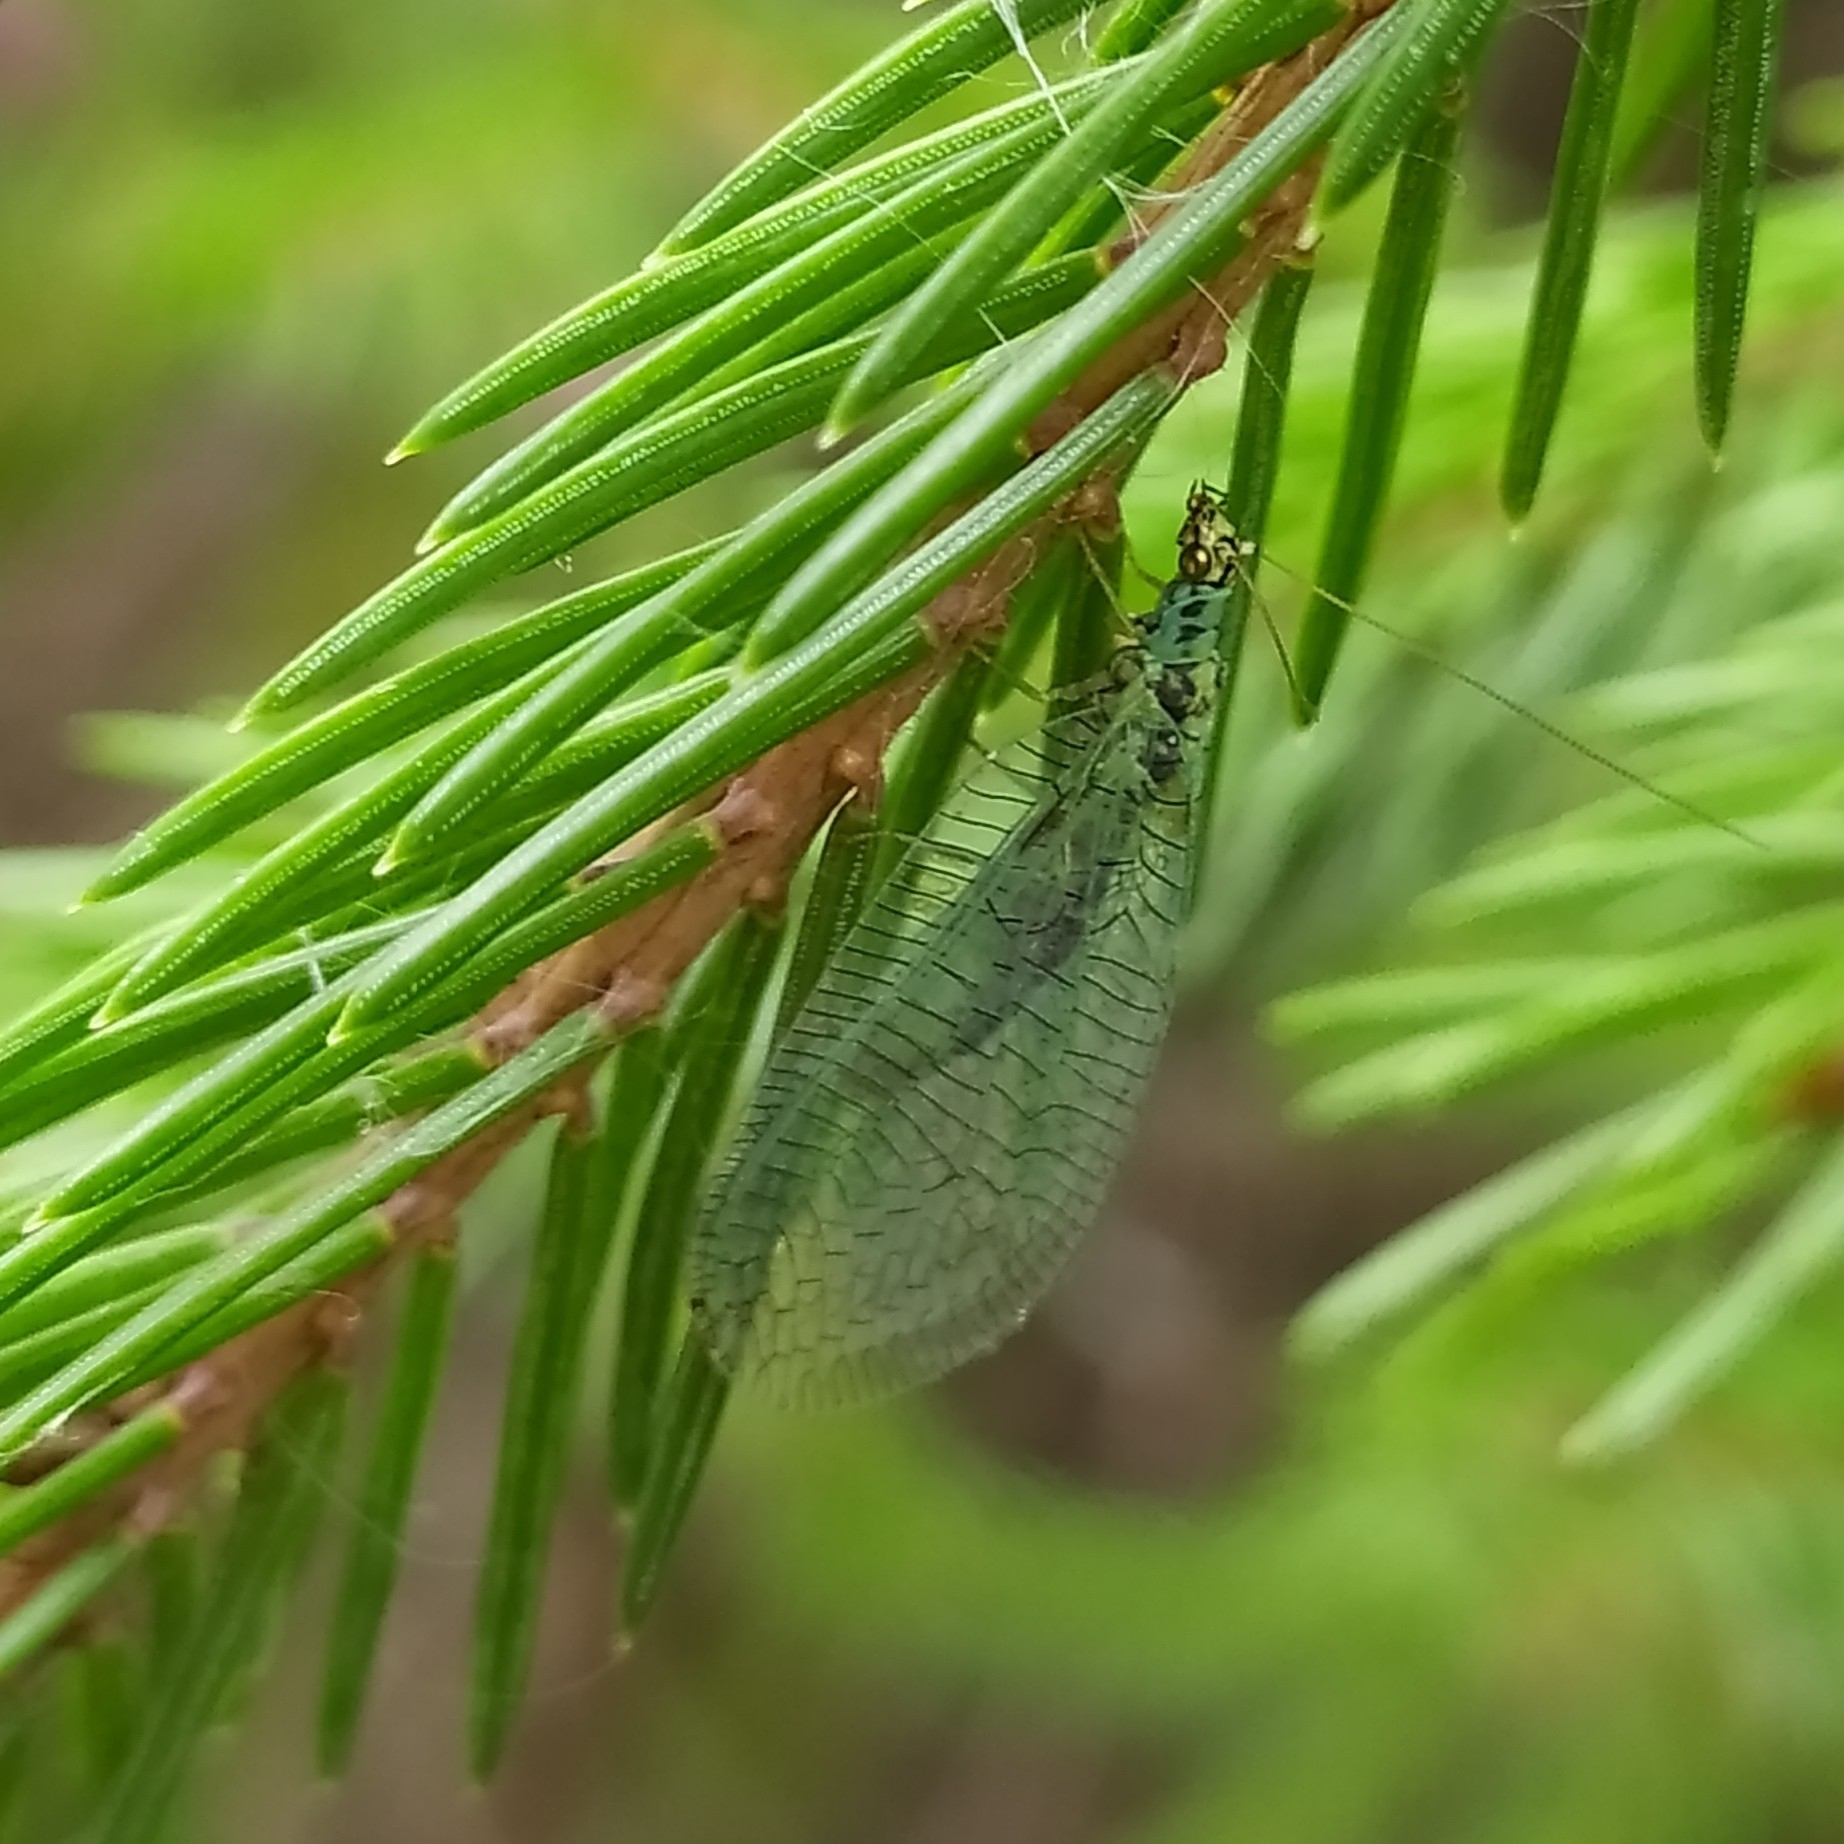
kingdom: Animalia
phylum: Arthropoda
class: Insecta
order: Neuroptera
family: Chrysopidae
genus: Chrysopa
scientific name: Chrysopa perla
